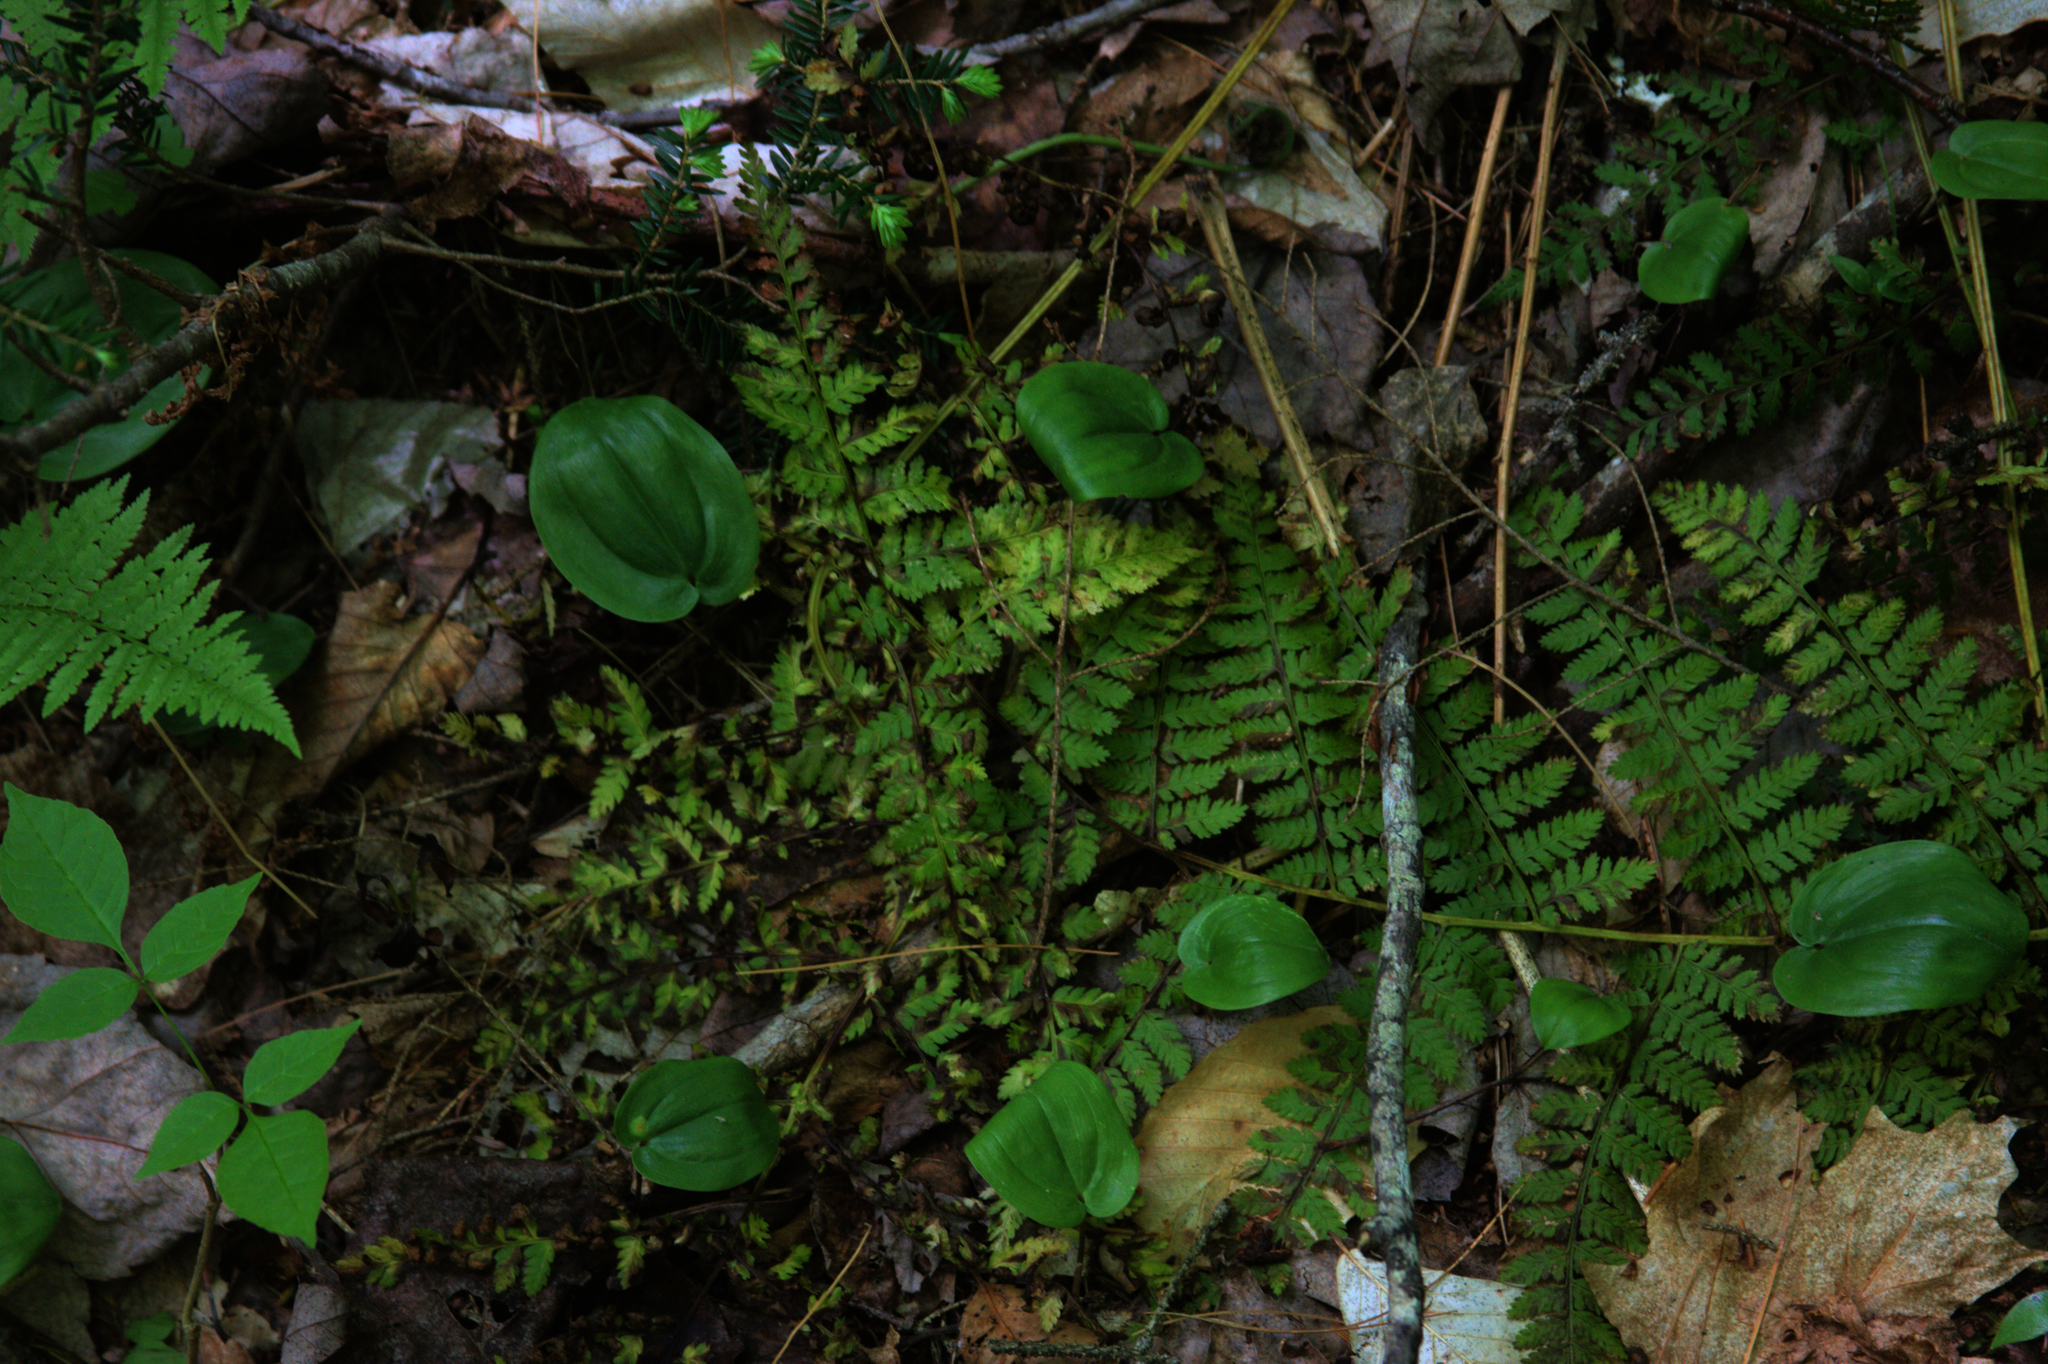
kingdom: Plantae
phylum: Tracheophyta
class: Liliopsida
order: Asparagales
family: Asparagaceae
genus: Maianthemum
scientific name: Maianthemum canadense
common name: False lily-of-the-valley
